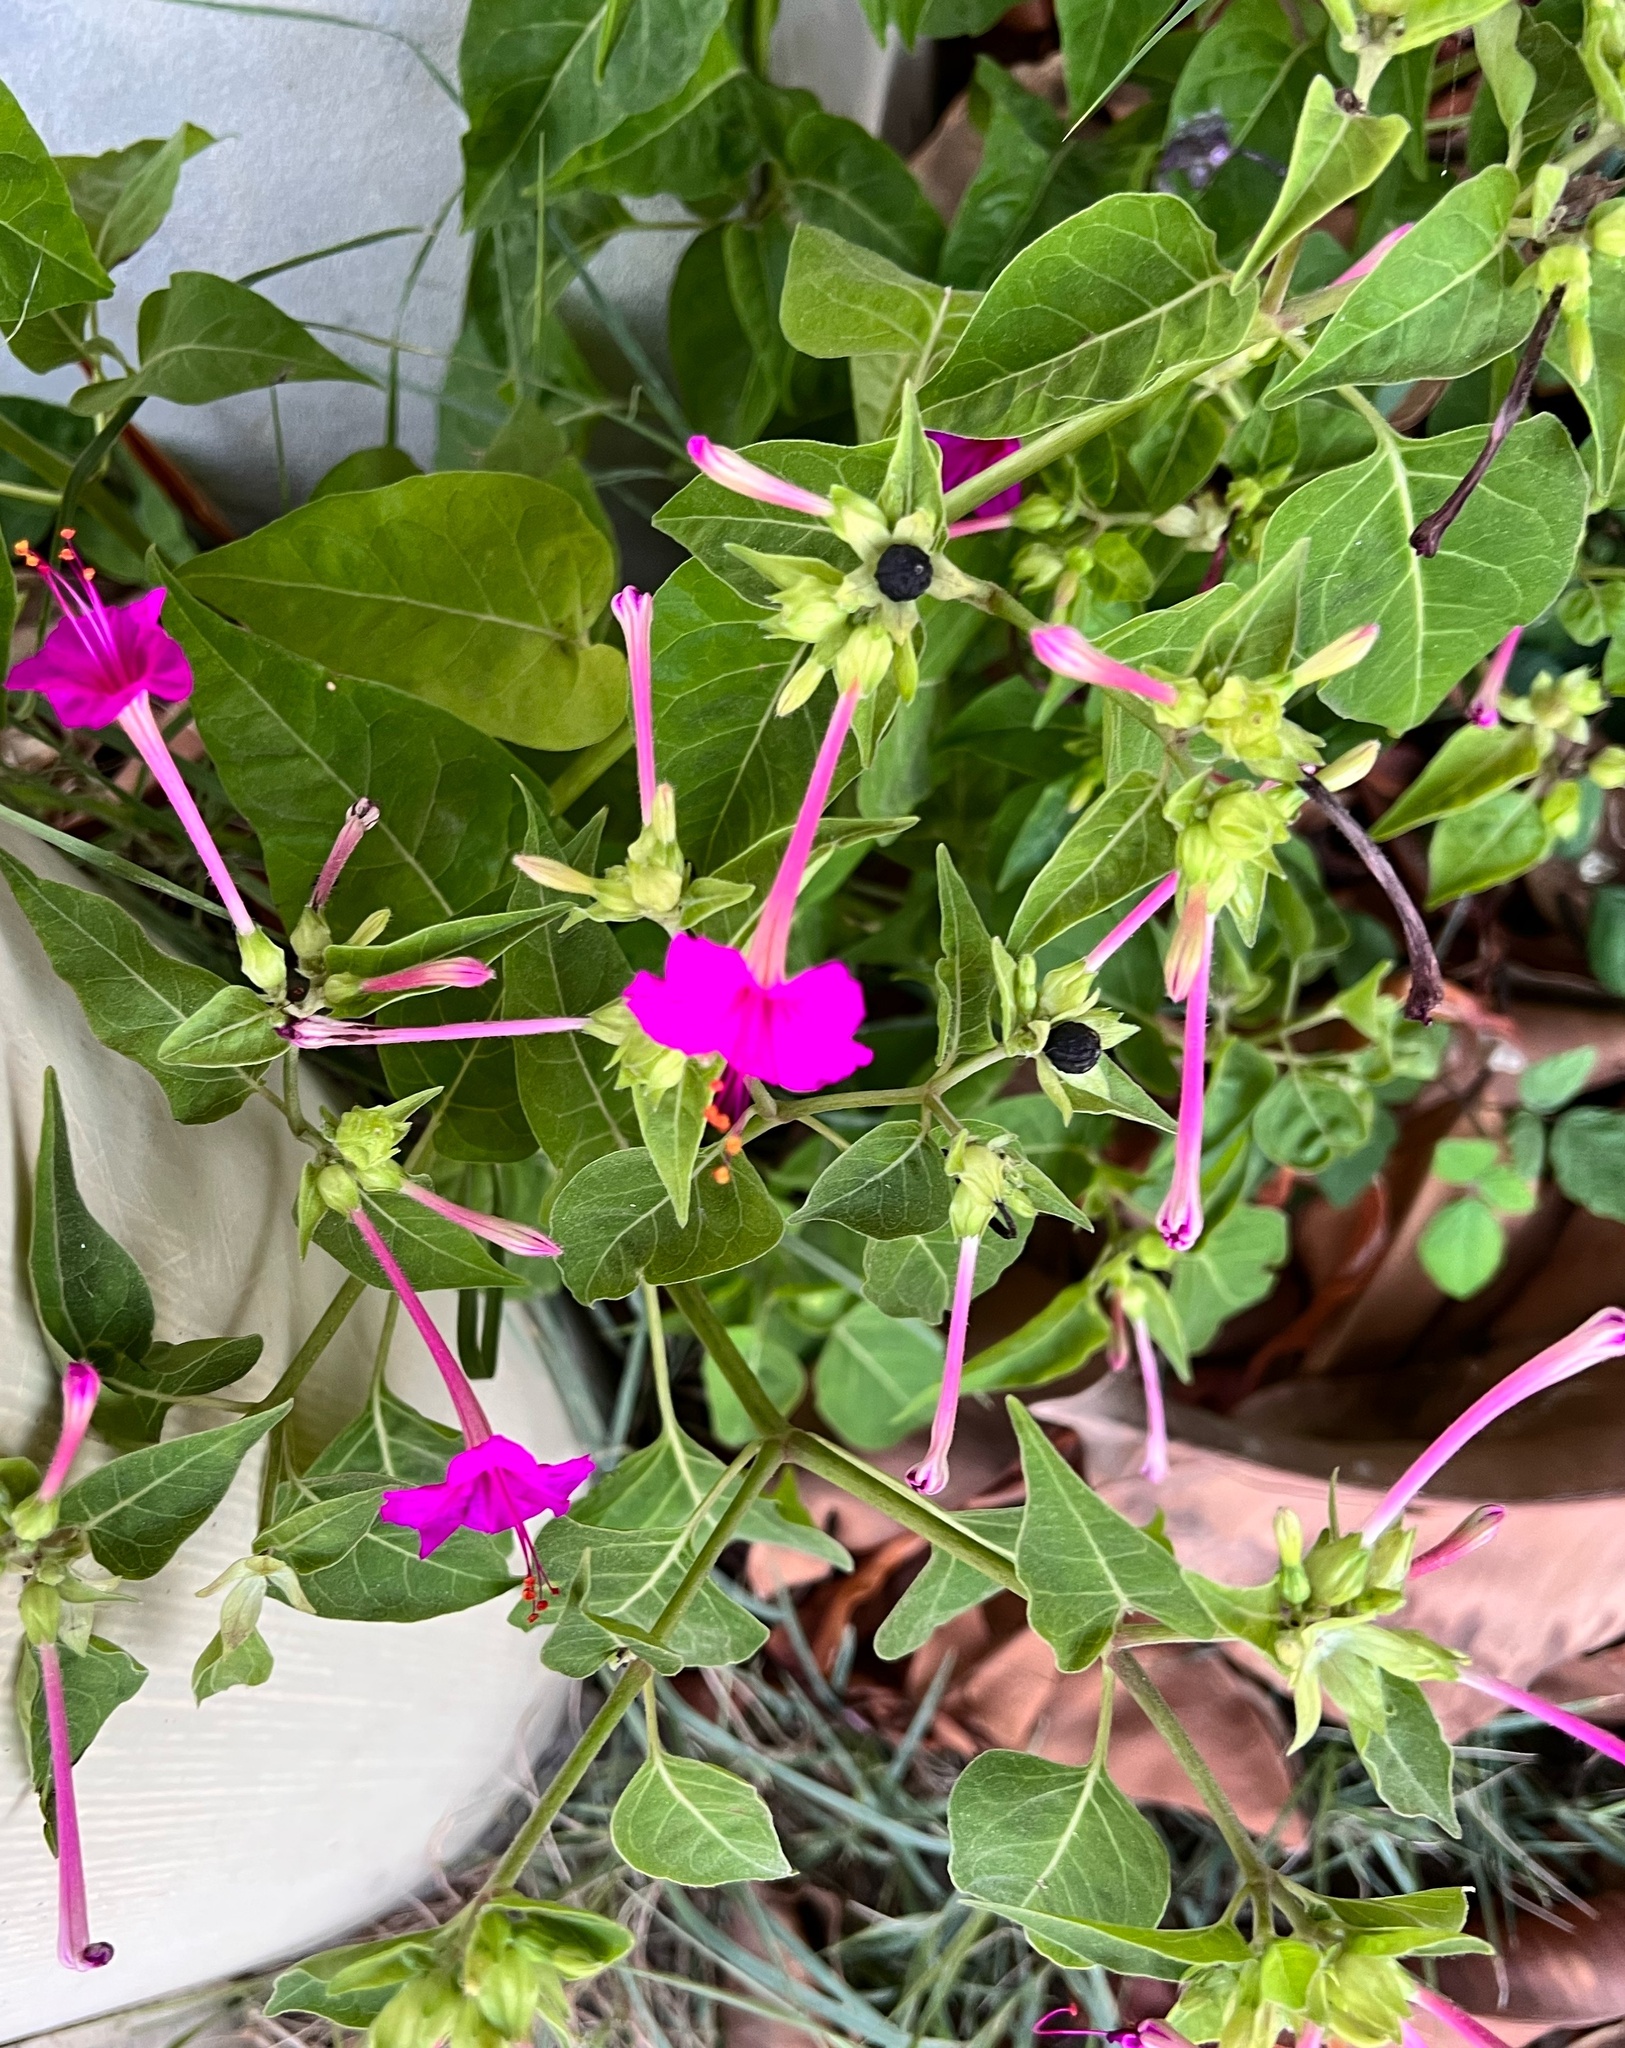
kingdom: Plantae
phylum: Tracheophyta
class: Magnoliopsida
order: Caryophyllales
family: Nyctaginaceae
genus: Mirabilis
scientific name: Mirabilis jalapa
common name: Marvel-of-peru
